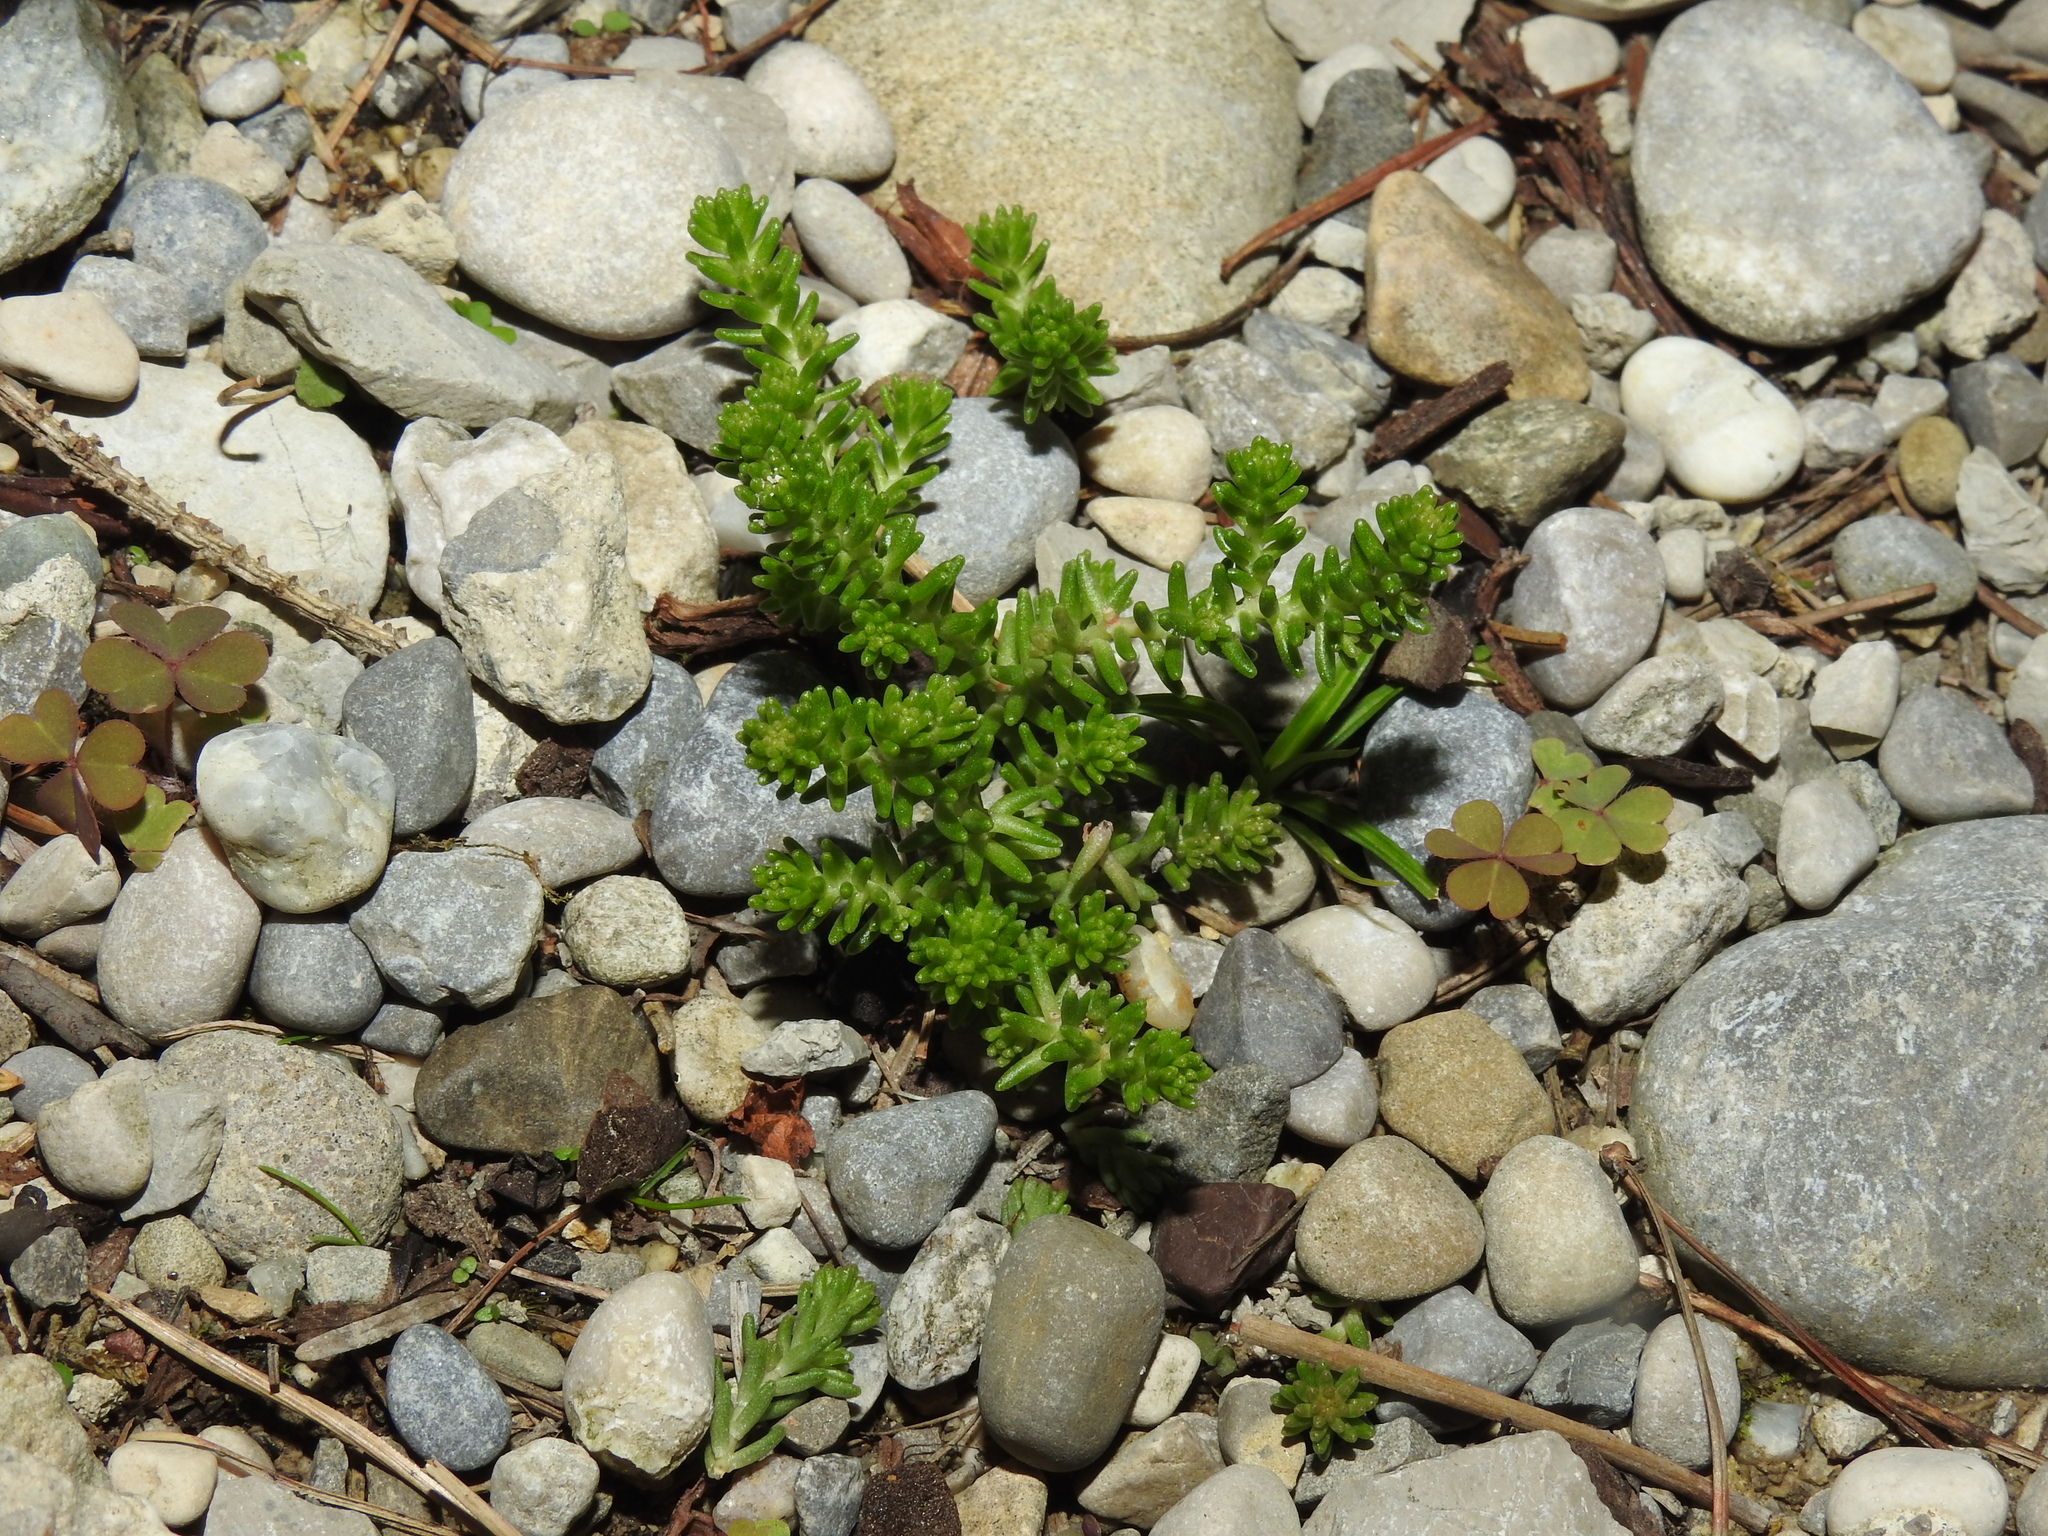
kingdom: Plantae
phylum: Tracheophyta
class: Magnoliopsida
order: Saxifragales
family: Crassulaceae
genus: Sedum
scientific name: Sedum sexangulare
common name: Tasteless stonecrop
